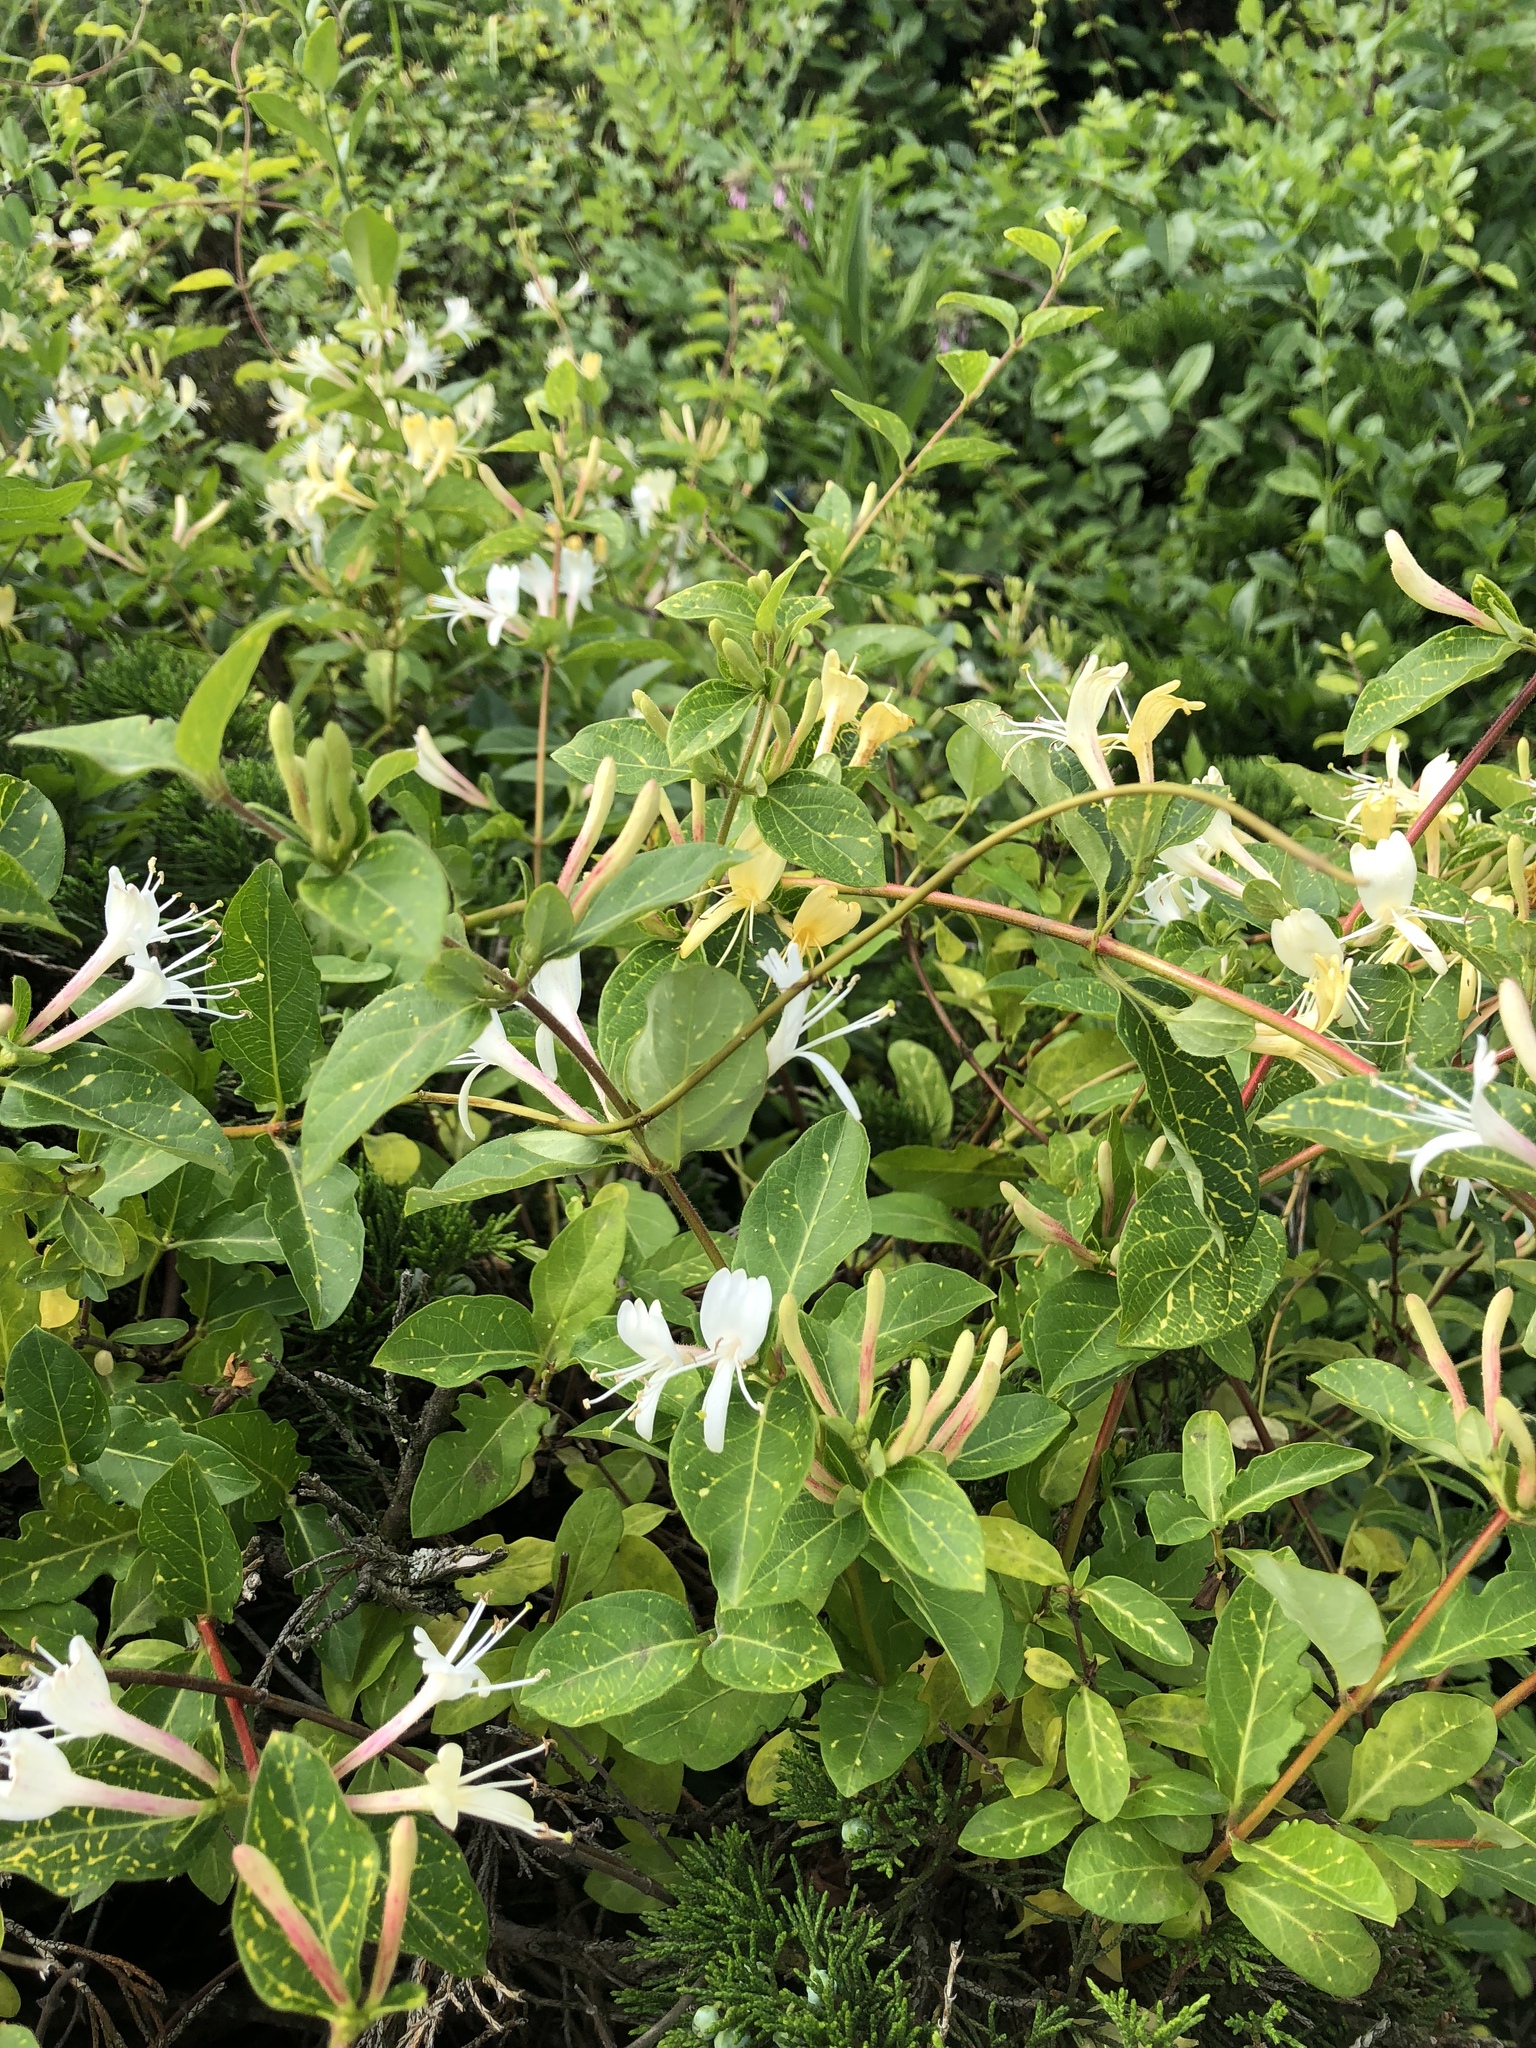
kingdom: Plantae
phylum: Tracheophyta
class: Magnoliopsida
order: Dipsacales
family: Caprifoliaceae
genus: Lonicera
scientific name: Lonicera japonica
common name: Japanese honeysuckle
